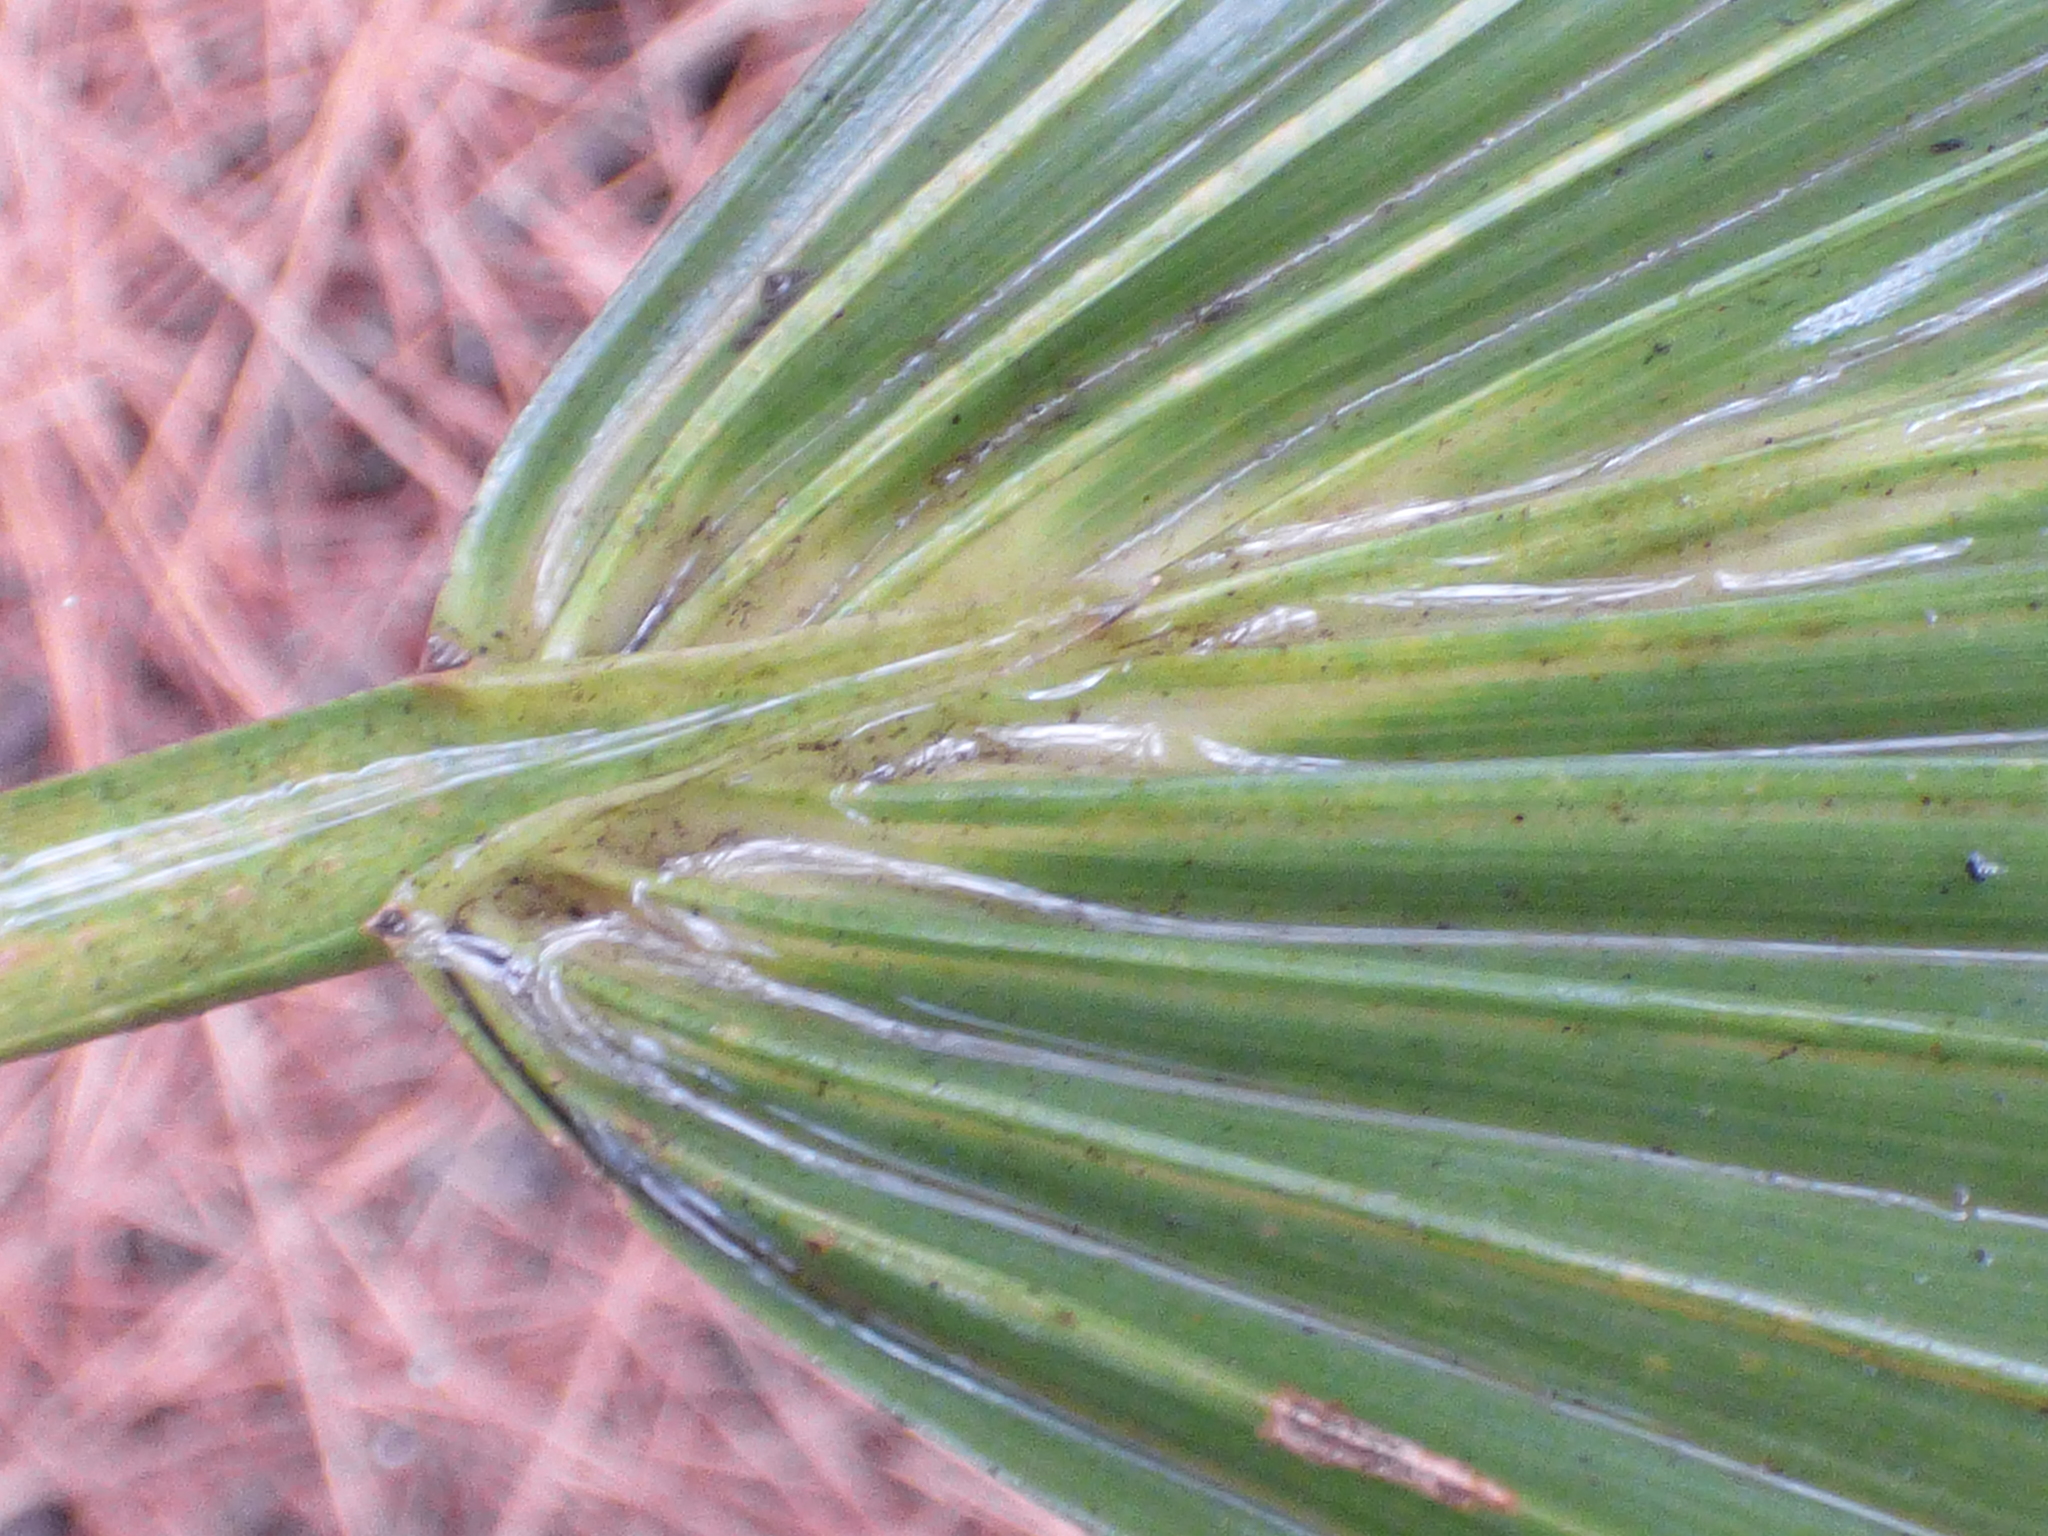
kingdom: Plantae
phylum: Tracheophyta
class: Liliopsida
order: Arecales
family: Arecaceae
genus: Sabal
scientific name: Sabal minor
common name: Dwarf palmetto
